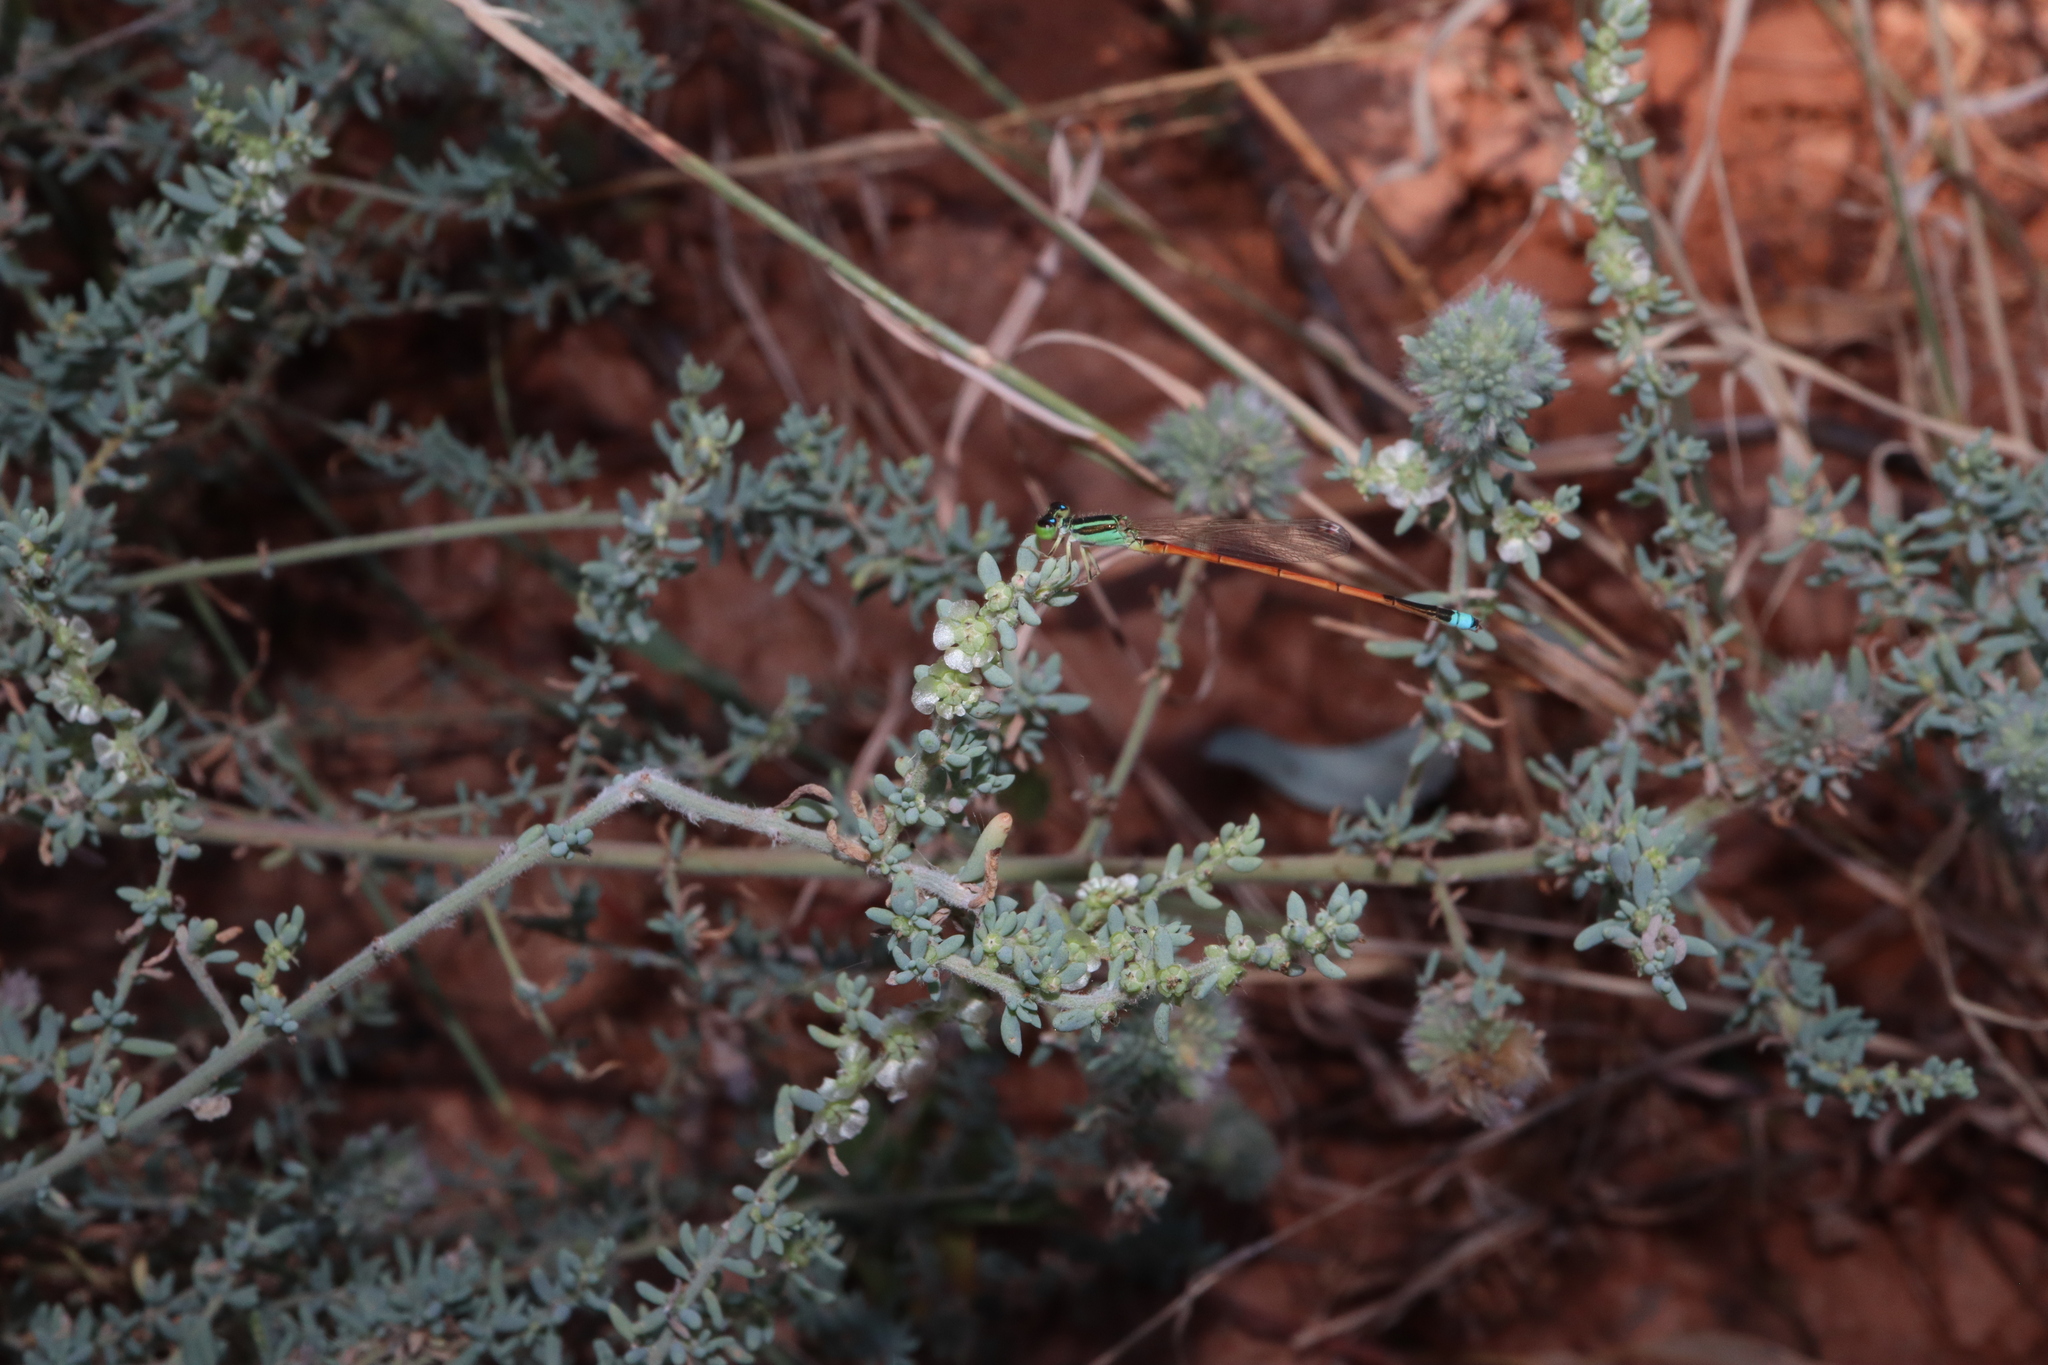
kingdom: Animalia
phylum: Arthropoda
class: Insecta
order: Odonata
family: Coenagrionidae
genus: Ischnura
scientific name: Ischnura aurora
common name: Gossamer damselfly
